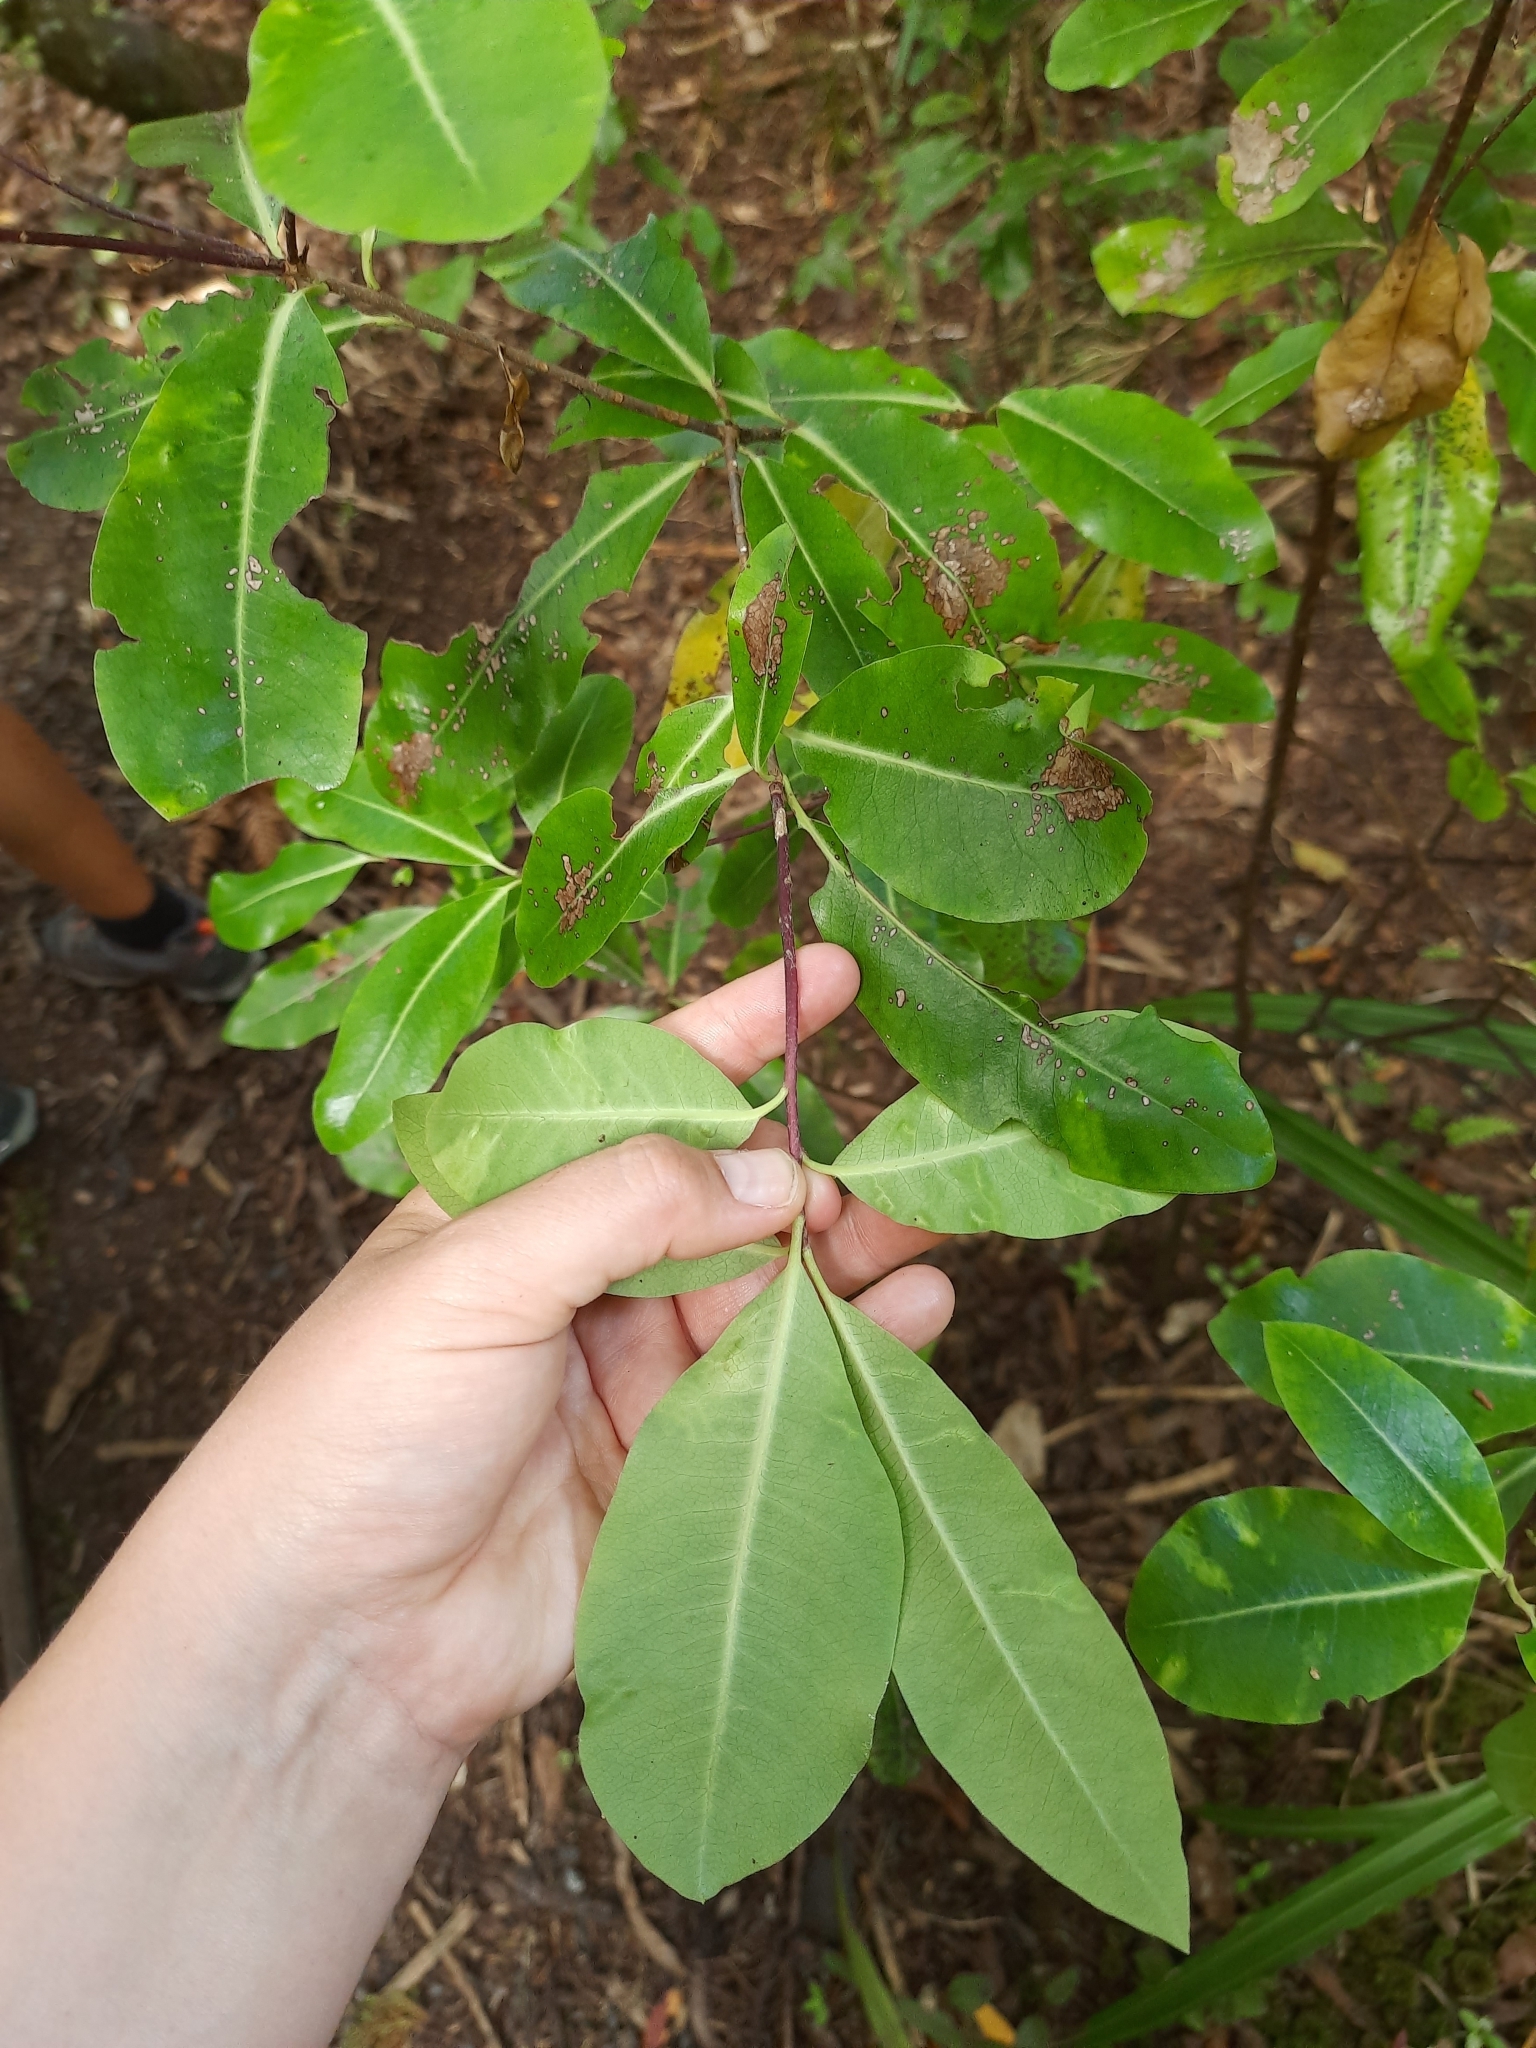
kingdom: Plantae
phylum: Tracheophyta
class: Magnoliopsida
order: Apiales
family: Pittosporaceae
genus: Pittosporum
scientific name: Pittosporum eugenioides
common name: Lemonwood
